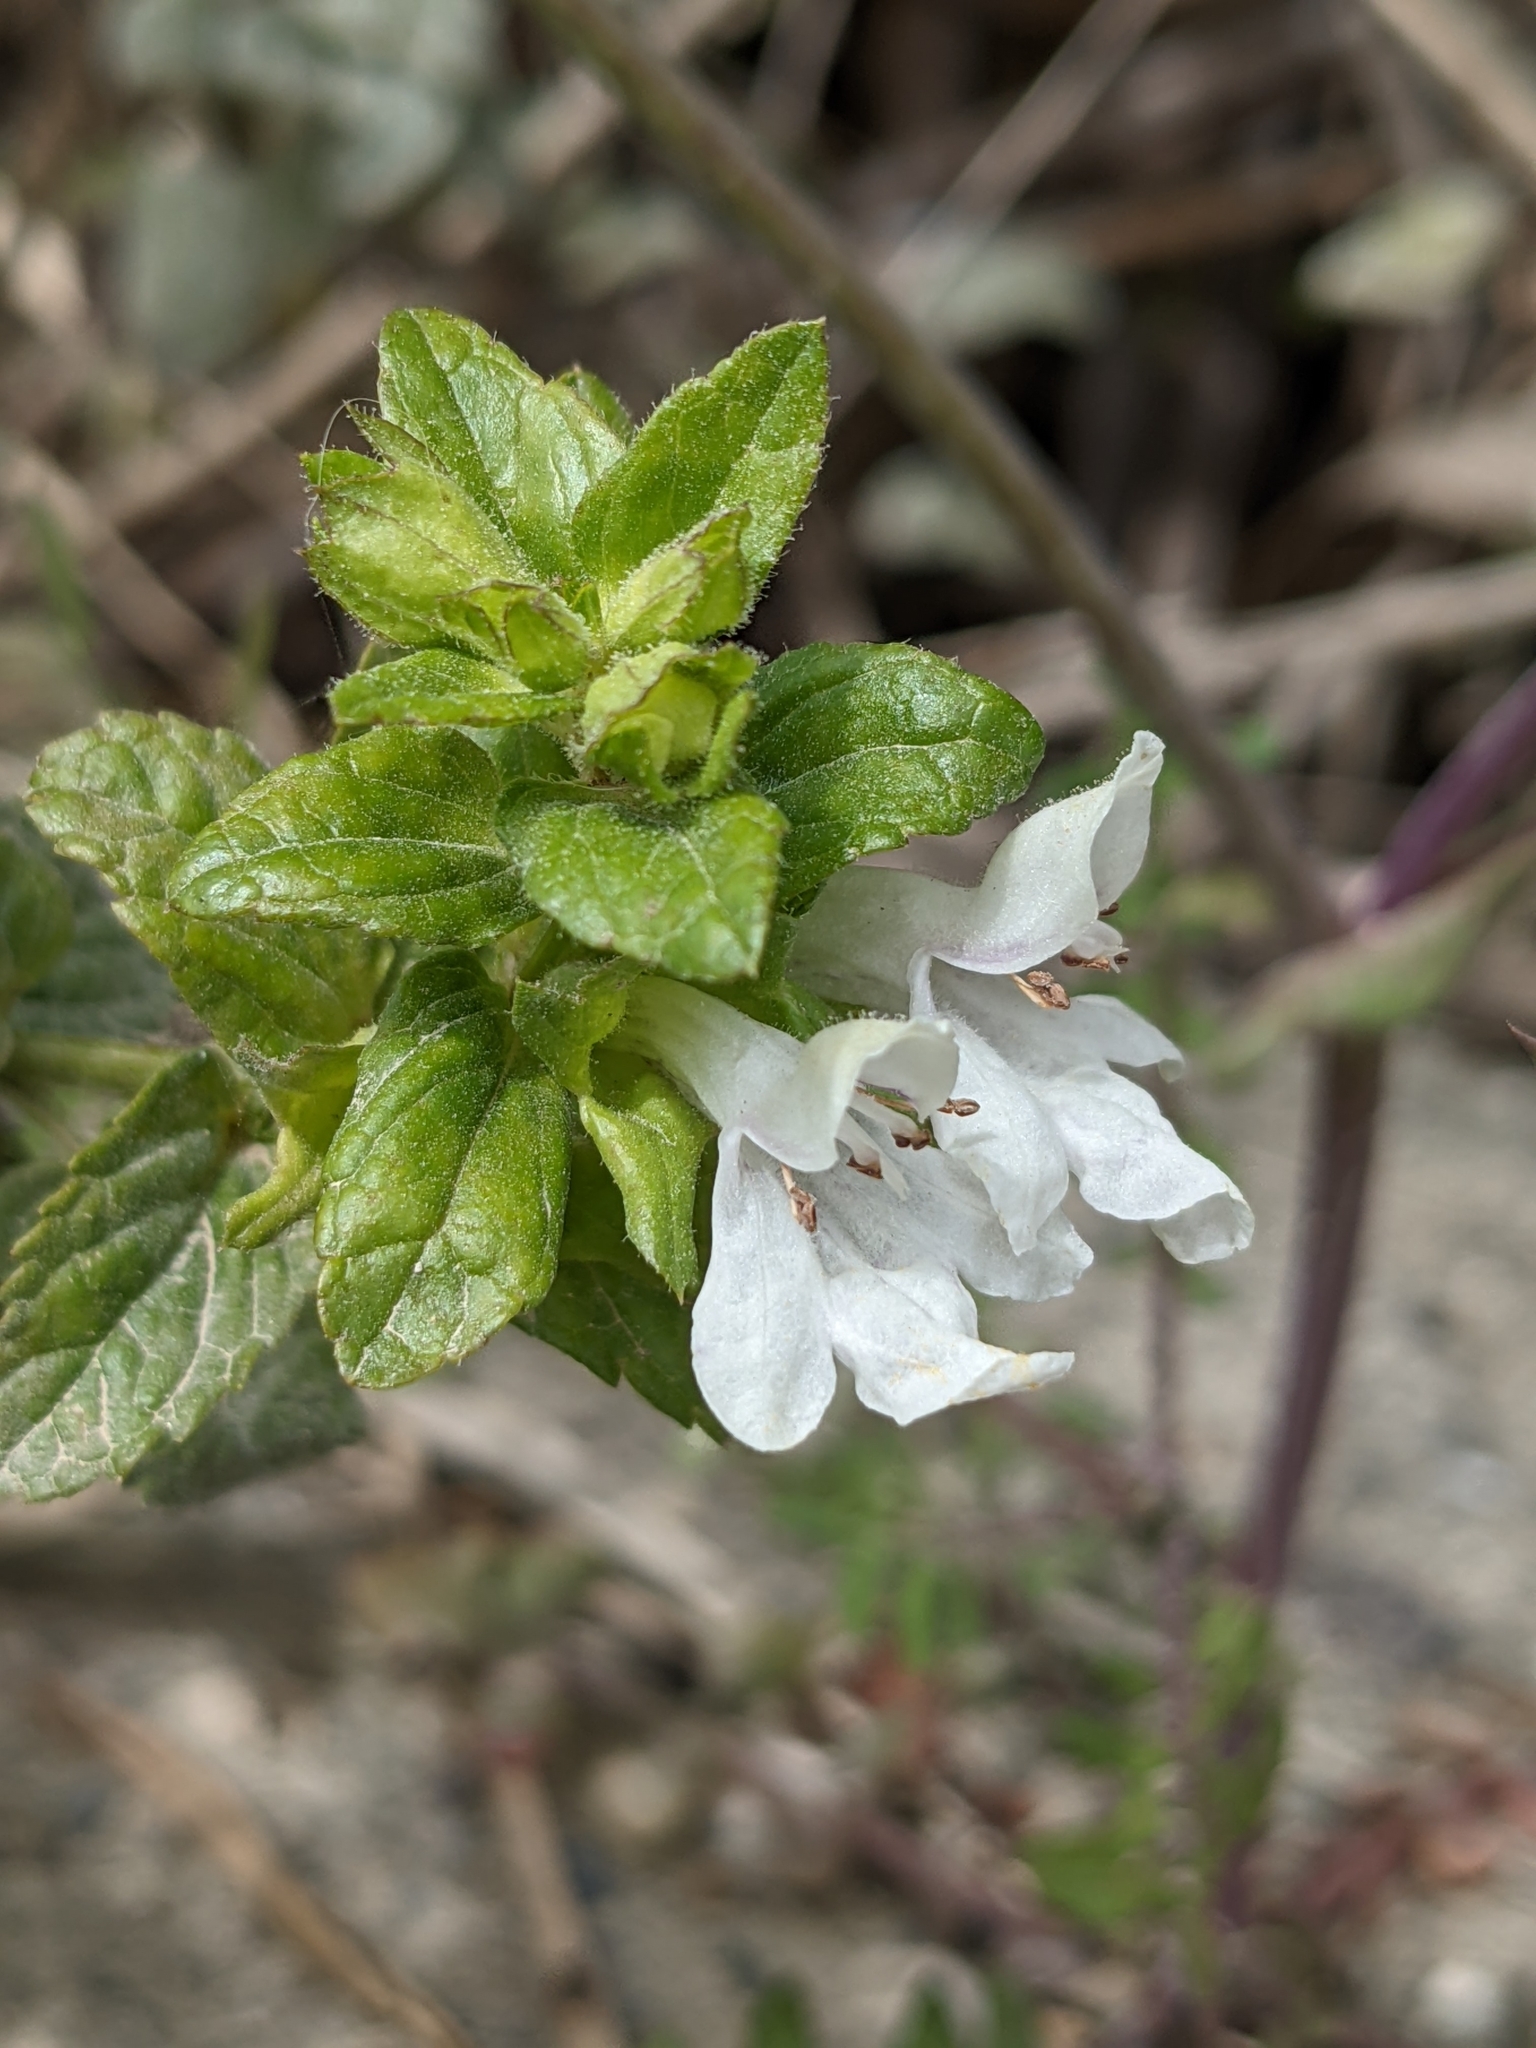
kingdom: Plantae
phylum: Tracheophyta
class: Magnoliopsida
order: Lamiales
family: Lamiaceae
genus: Prasium
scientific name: Prasium majus
